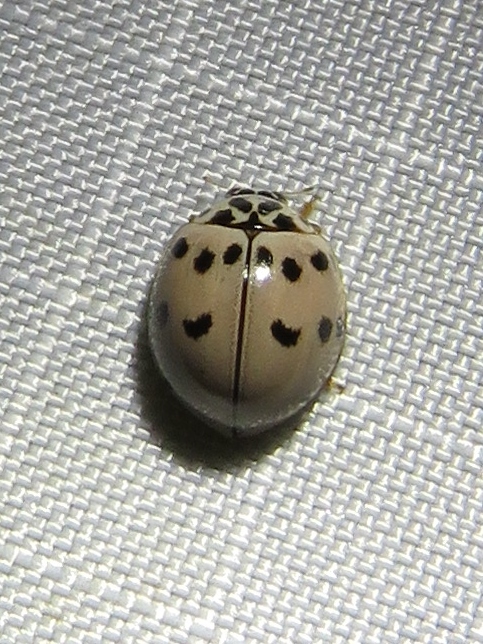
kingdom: Animalia
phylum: Arthropoda
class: Insecta
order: Coleoptera
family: Coccinellidae
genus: Olla
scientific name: Olla v-nigrum
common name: Ashy gray lady beetle
